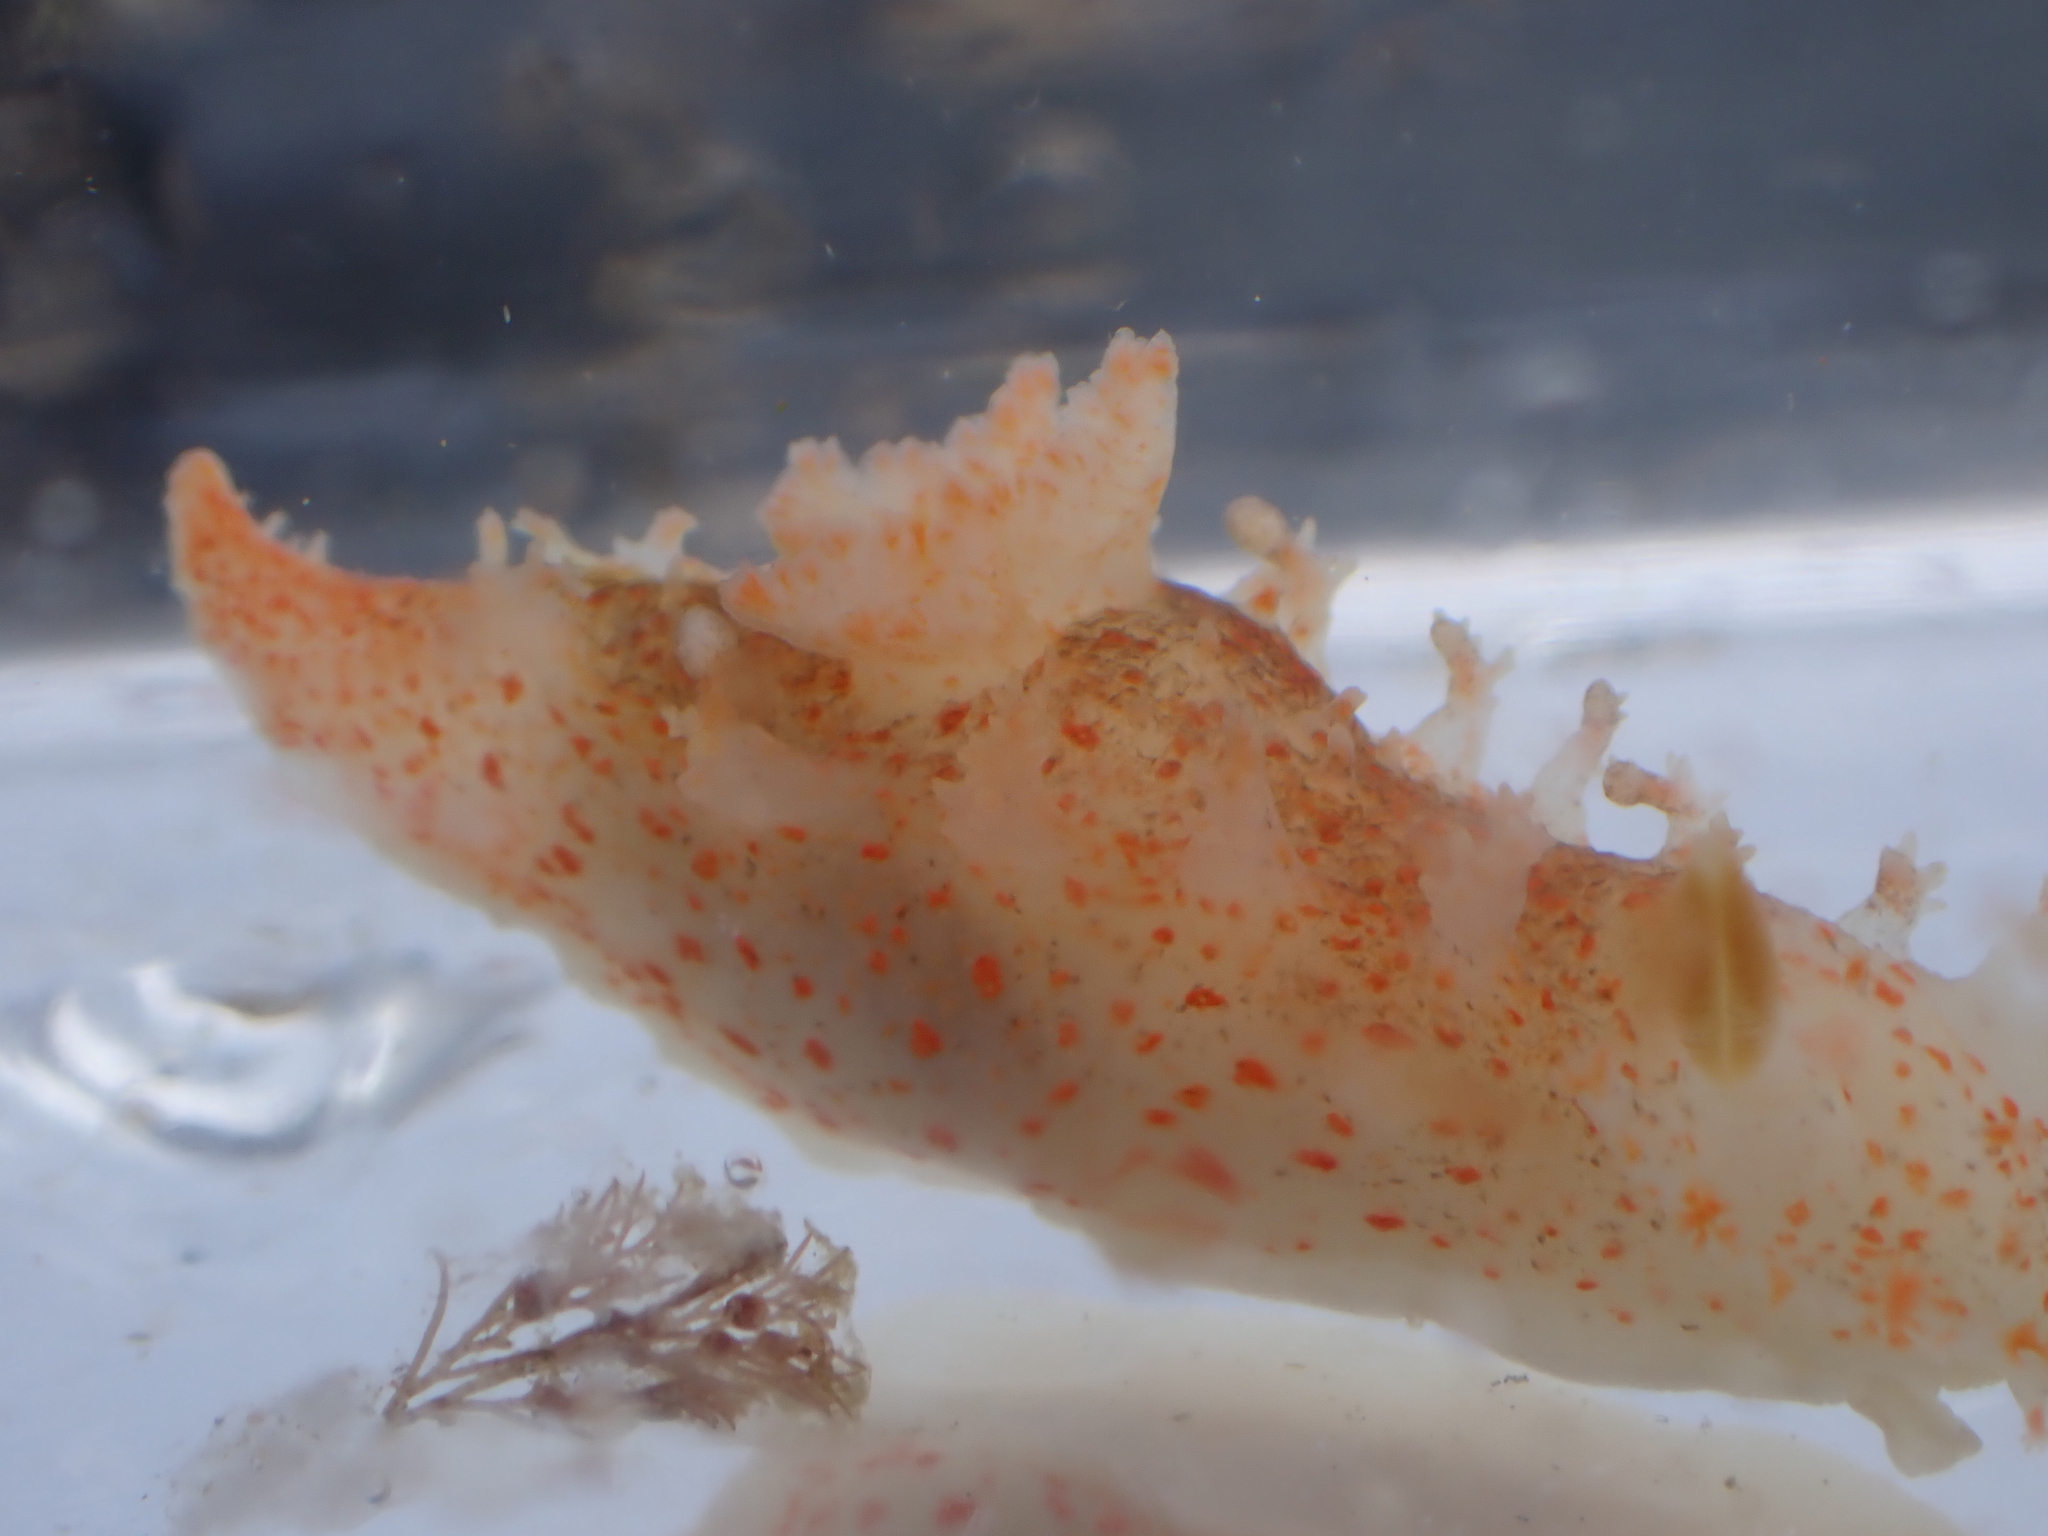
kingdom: Animalia
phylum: Mollusca
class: Gastropoda
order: Nudibranchia
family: Polyceridae
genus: Triopha
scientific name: Triopha modesta
